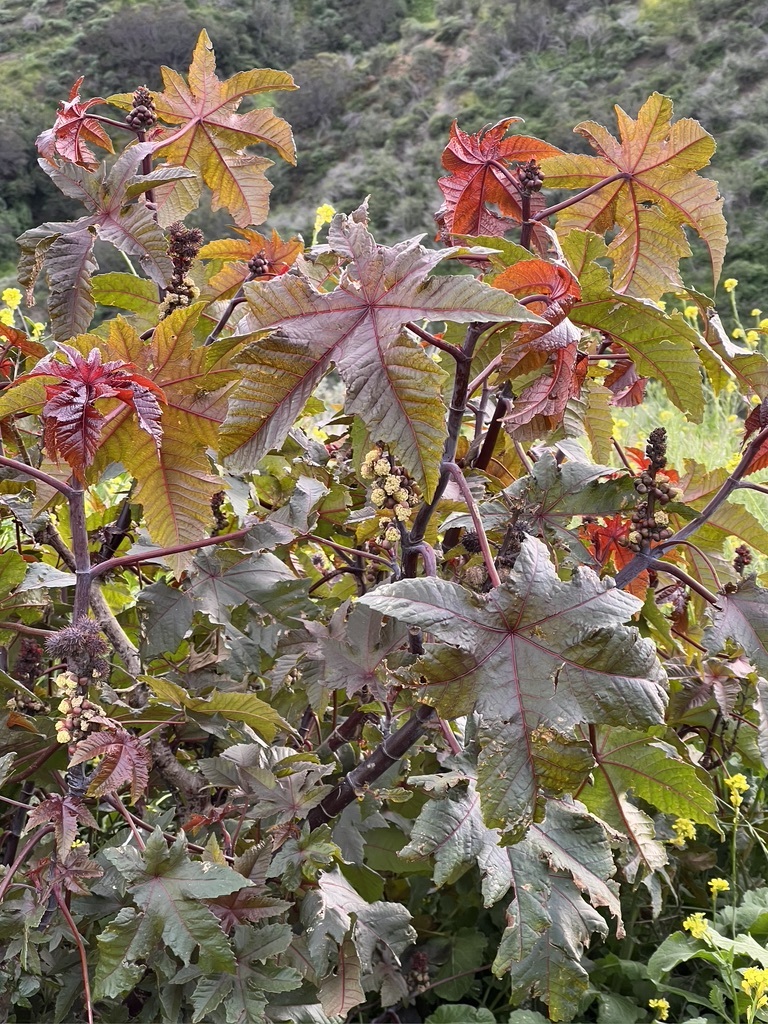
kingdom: Plantae
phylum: Tracheophyta
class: Magnoliopsida
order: Malpighiales
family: Euphorbiaceae
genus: Ricinus
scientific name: Ricinus communis
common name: Castor-oil-plant
